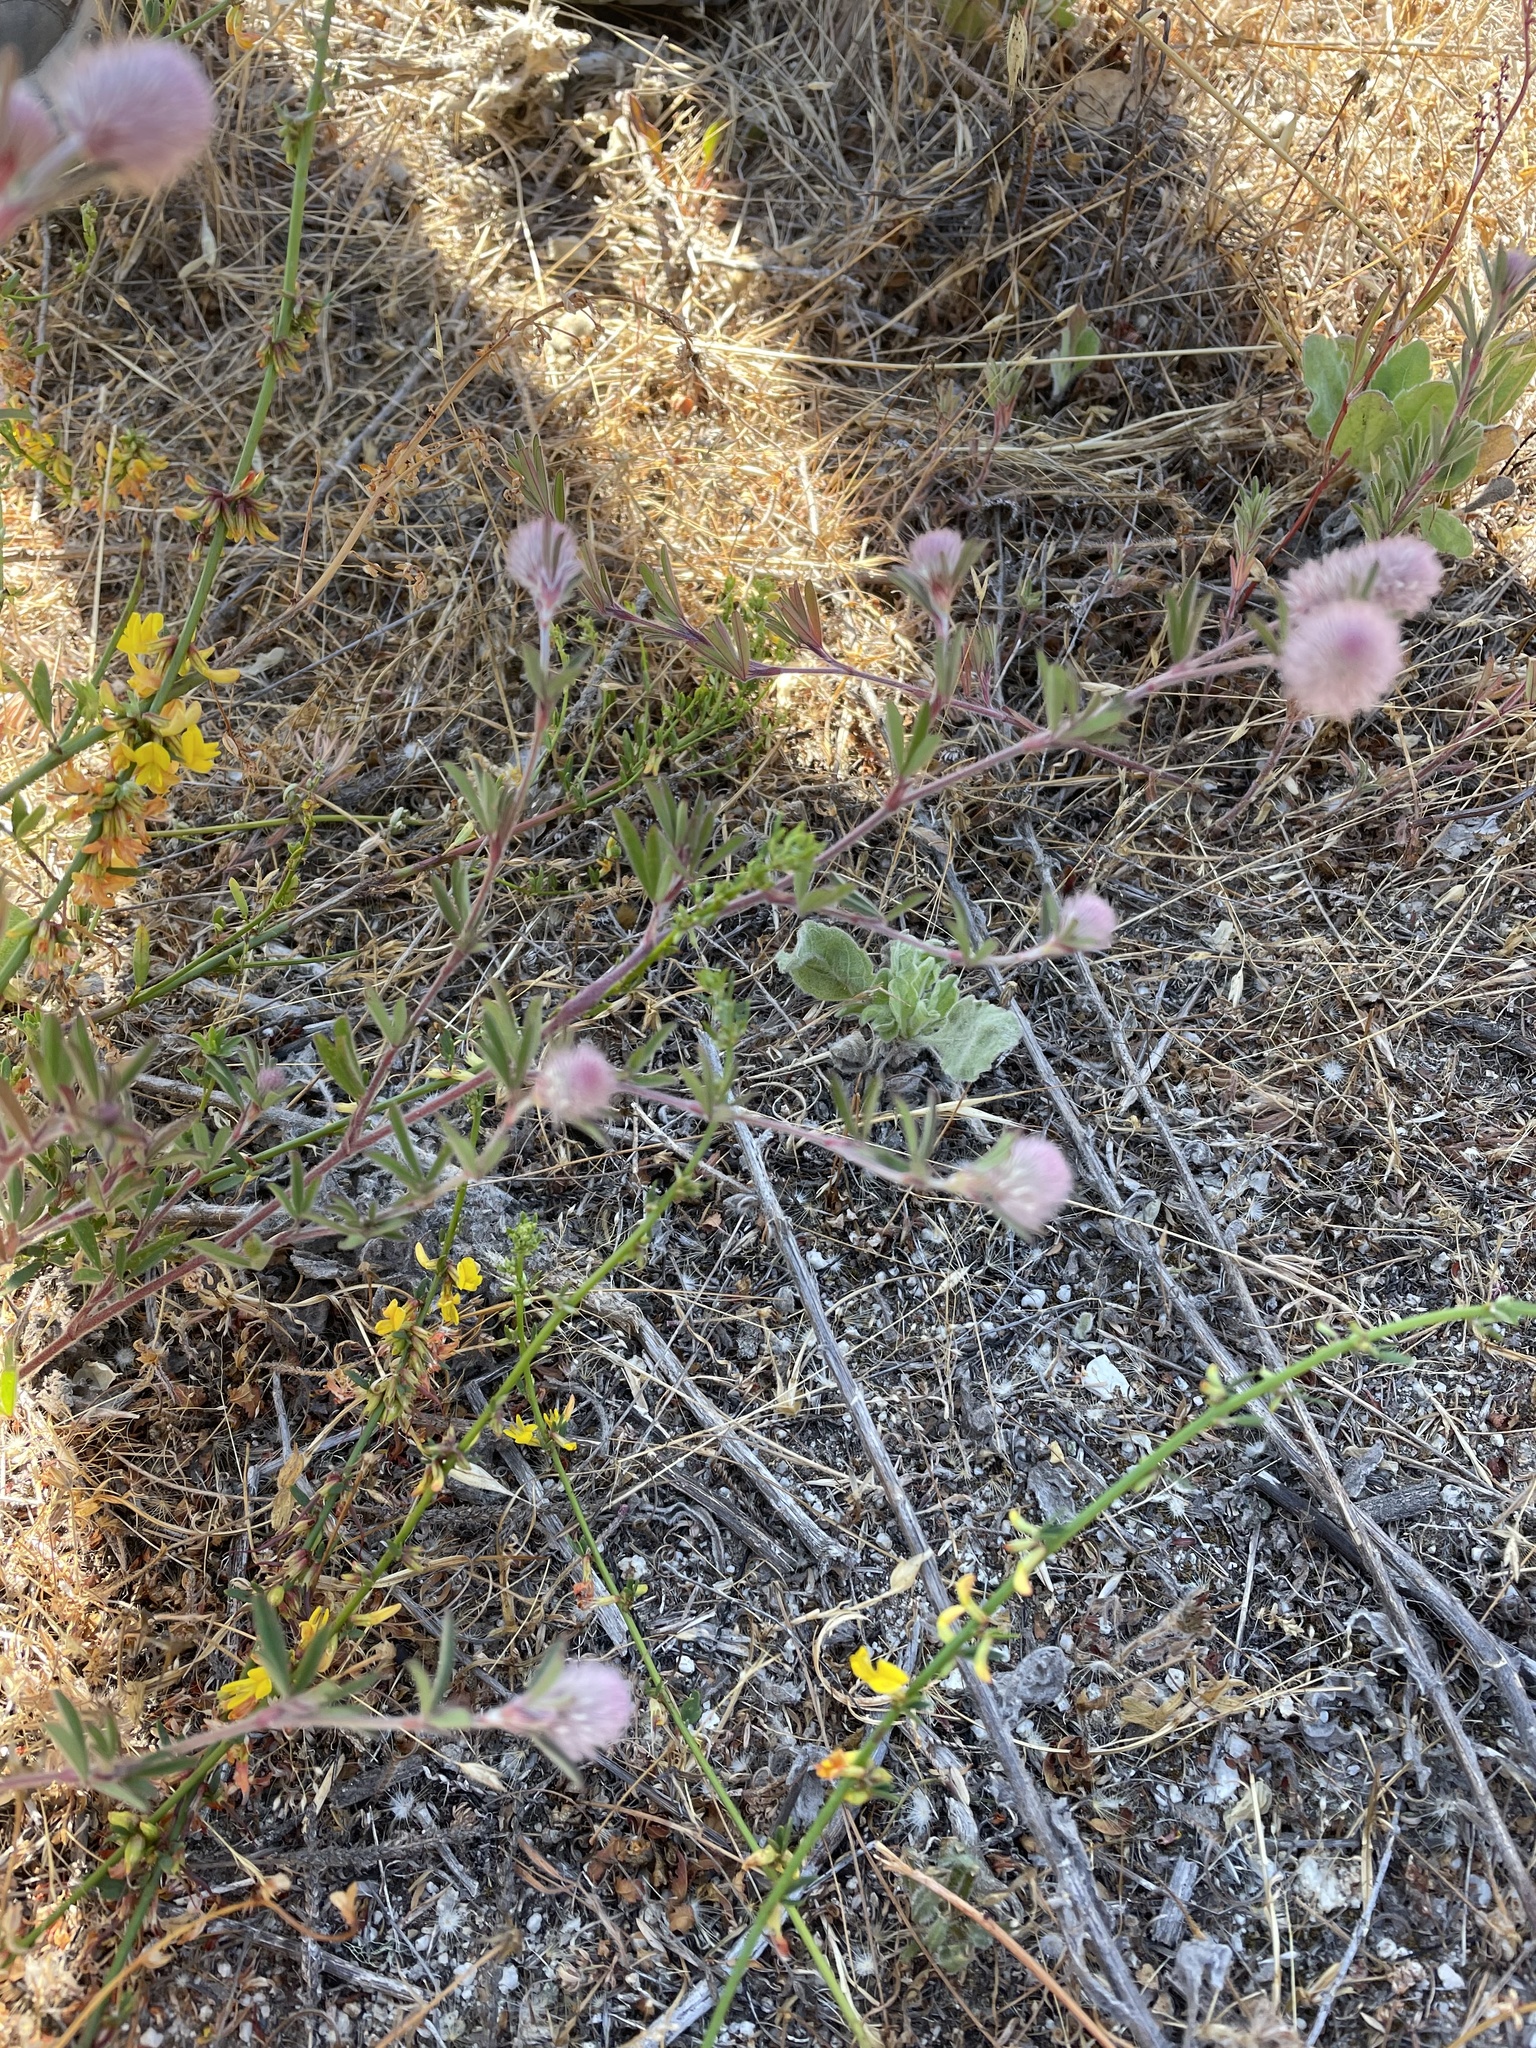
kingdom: Plantae
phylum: Tracheophyta
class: Magnoliopsida
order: Fabales
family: Fabaceae
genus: Trifolium
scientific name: Trifolium arvense
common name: Hare's-foot clover
